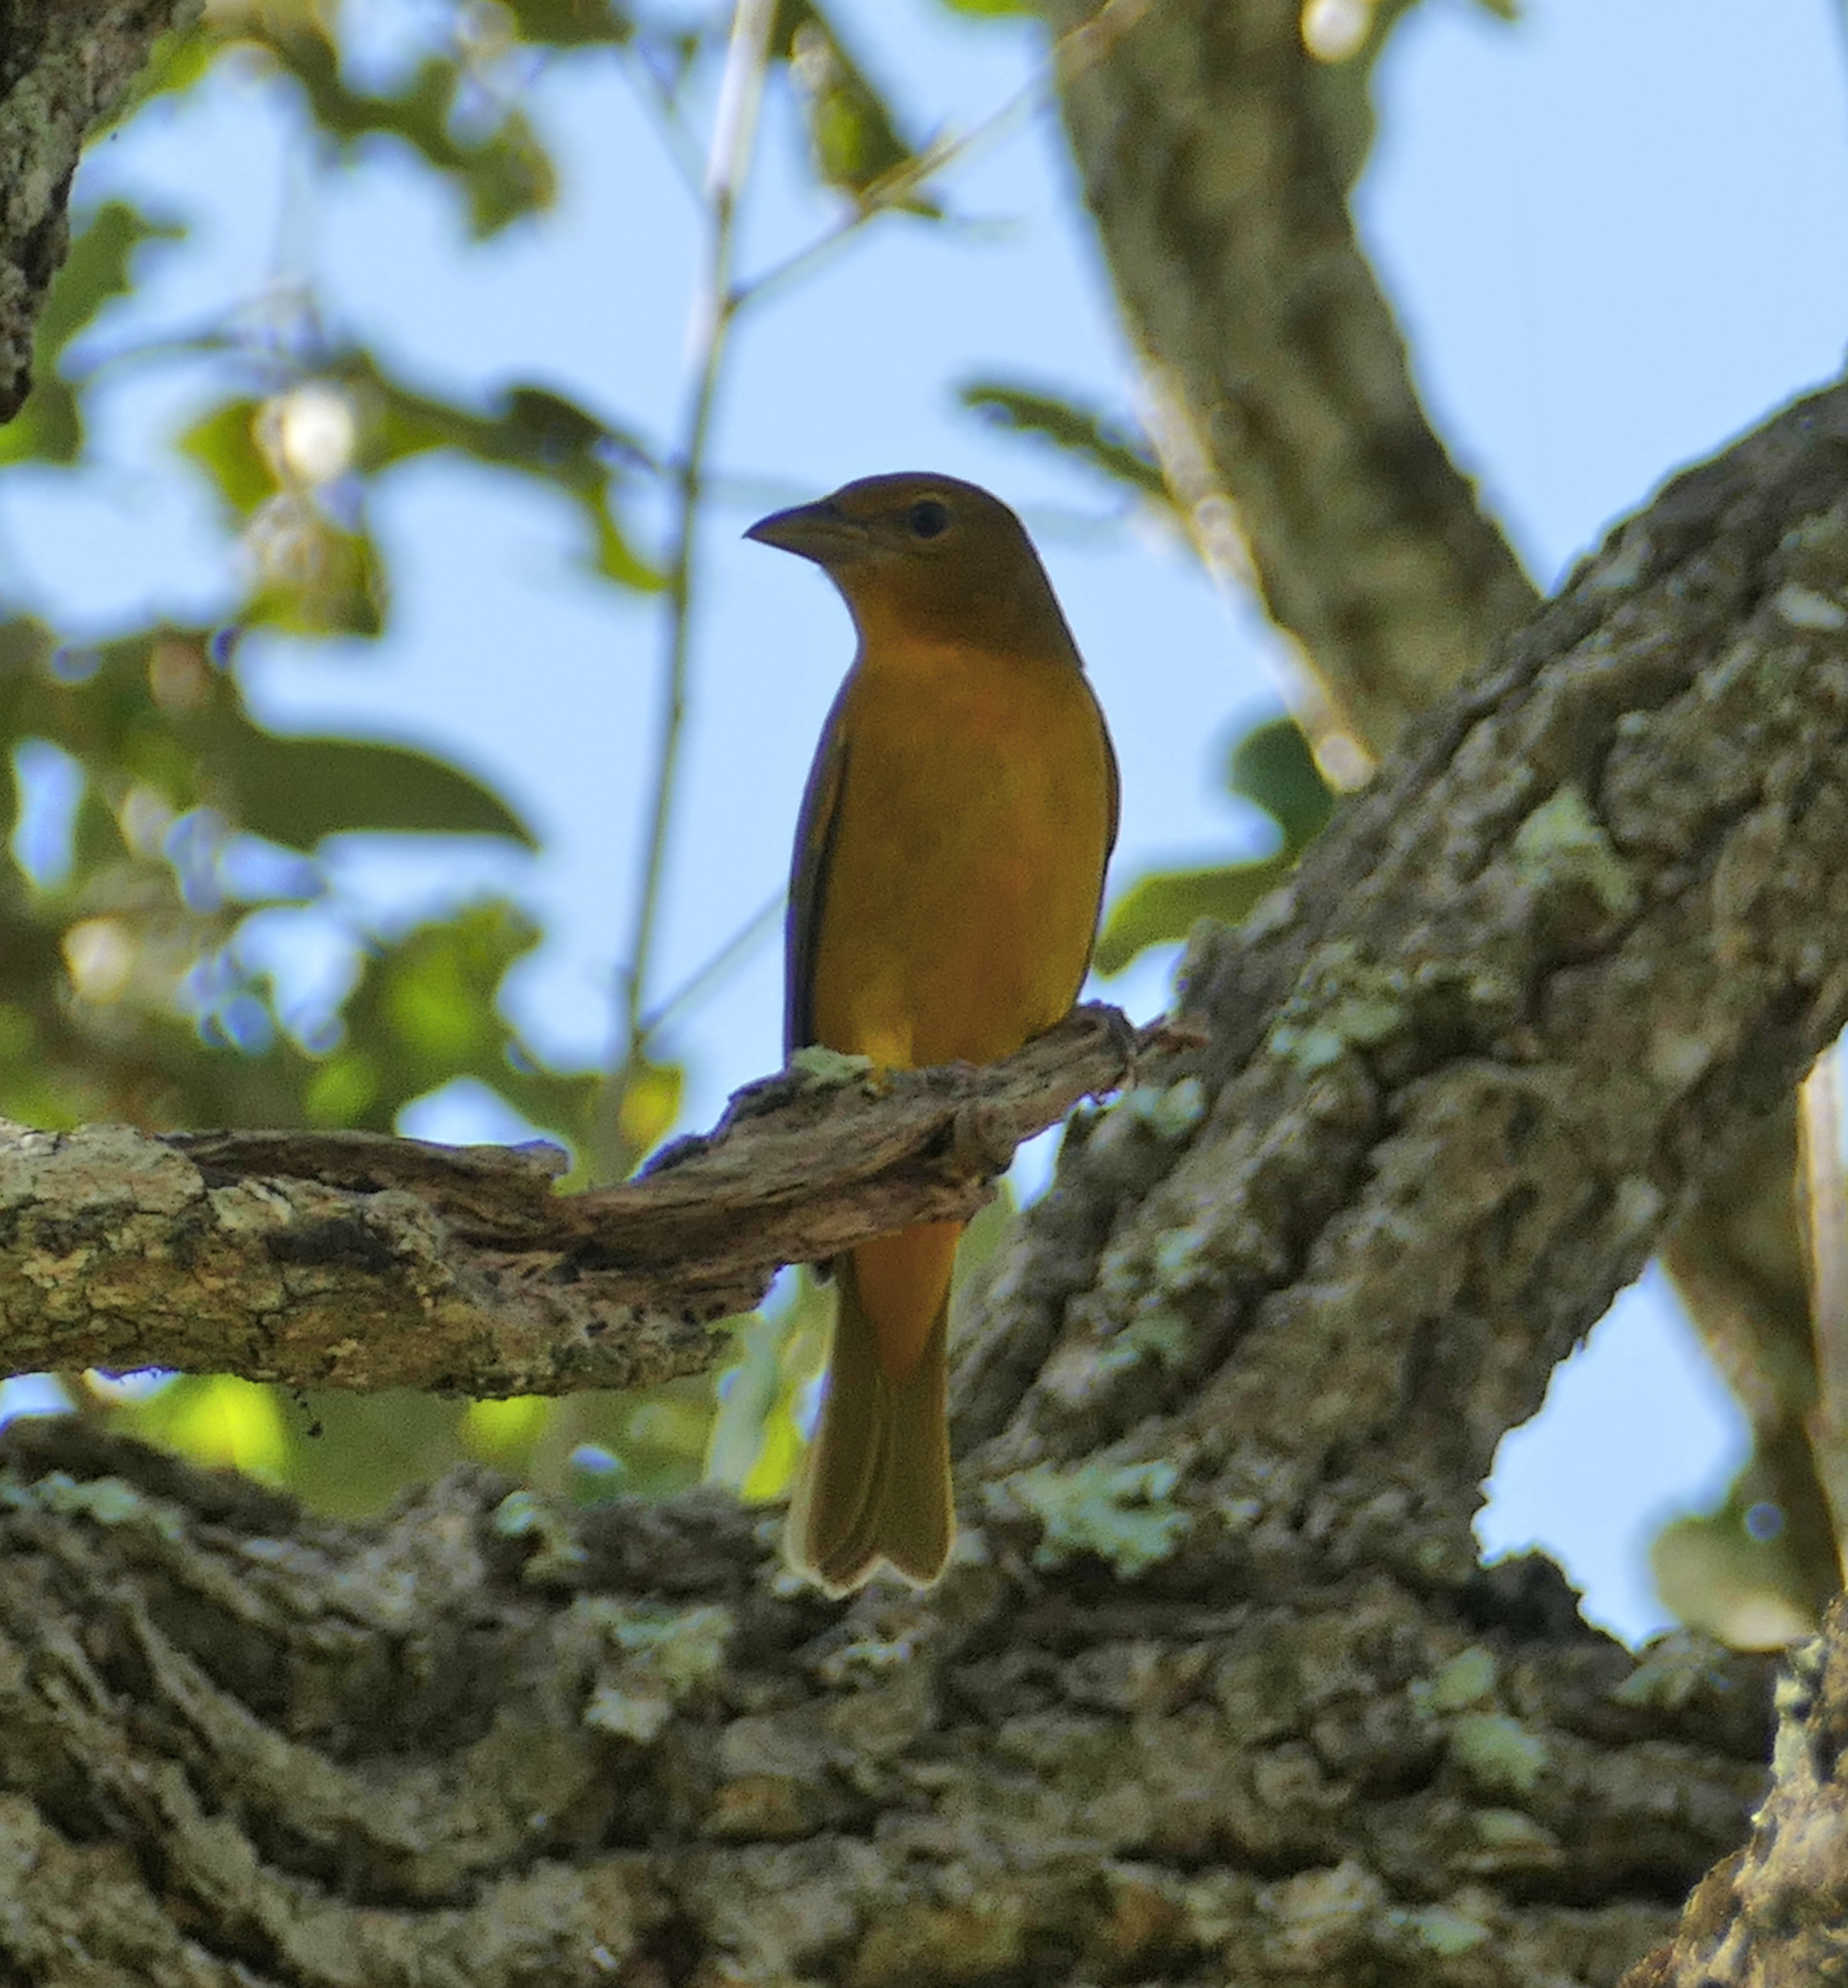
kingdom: Animalia
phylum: Chordata
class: Aves
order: Passeriformes
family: Cardinalidae
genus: Piranga
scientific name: Piranga rubra
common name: Summer tanager
